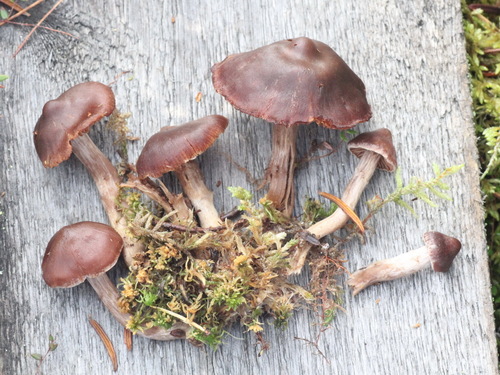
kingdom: Fungi
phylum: Basidiomycota
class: Agaricomycetes
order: Agaricales
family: Cortinariaceae
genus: Cortinarius
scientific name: Cortinarius glandicolor
